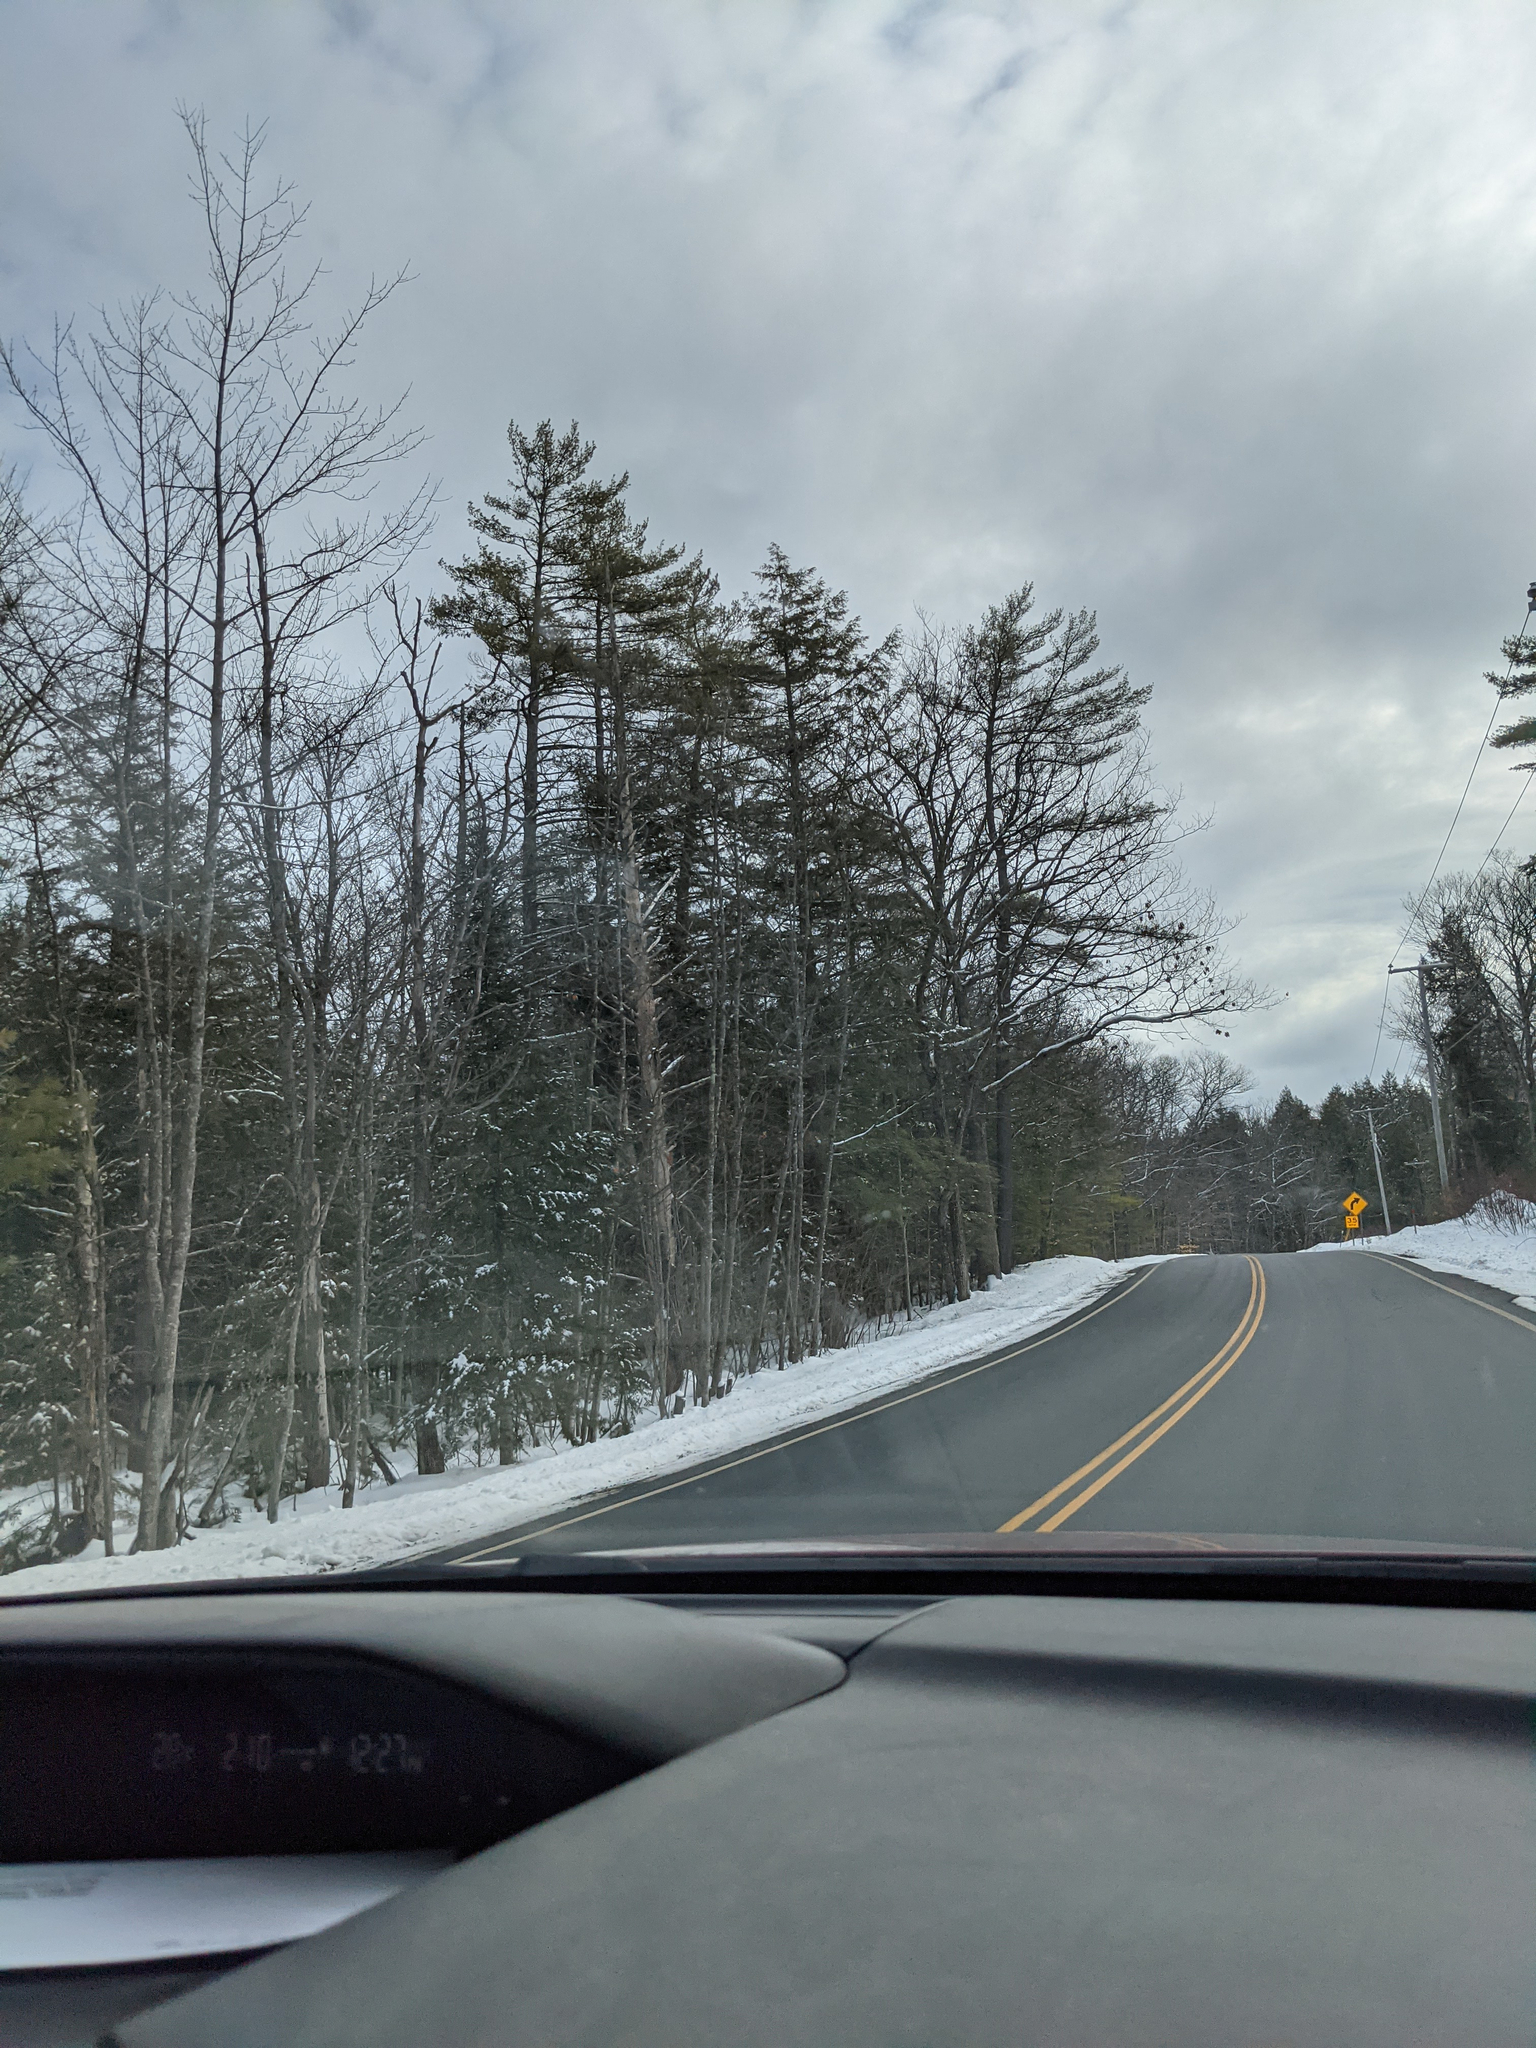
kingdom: Plantae
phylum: Tracheophyta
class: Pinopsida
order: Pinales
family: Pinaceae
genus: Pinus
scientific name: Pinus strobus
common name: Weymouth pine
